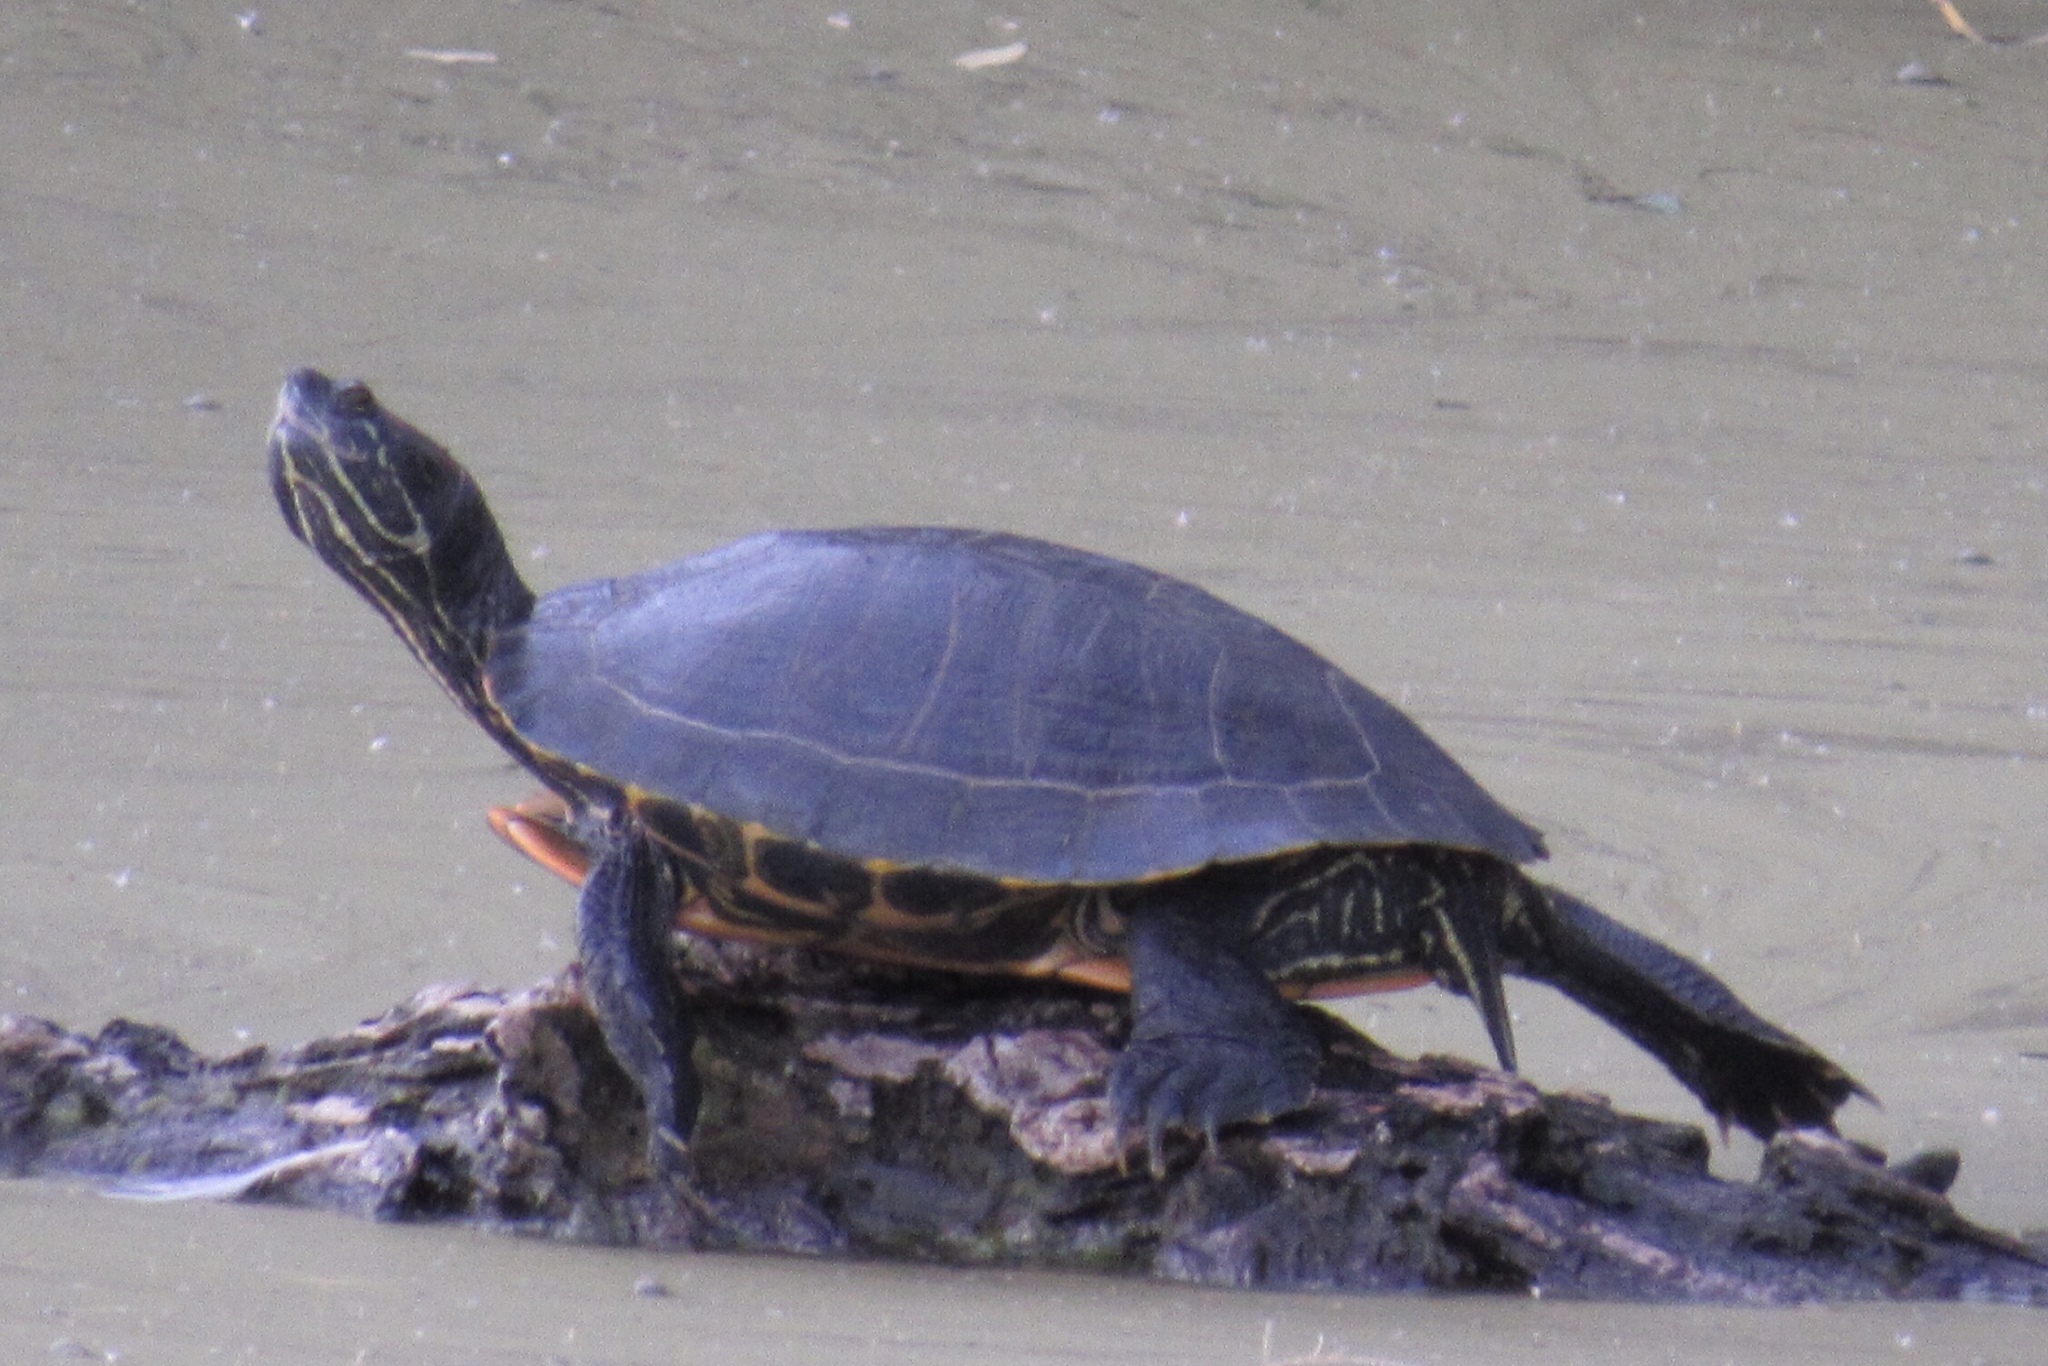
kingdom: Animalia
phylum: Chordata
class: Testudines
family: Emydidae
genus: Trachemys
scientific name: Trachemys scripta
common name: Slider
